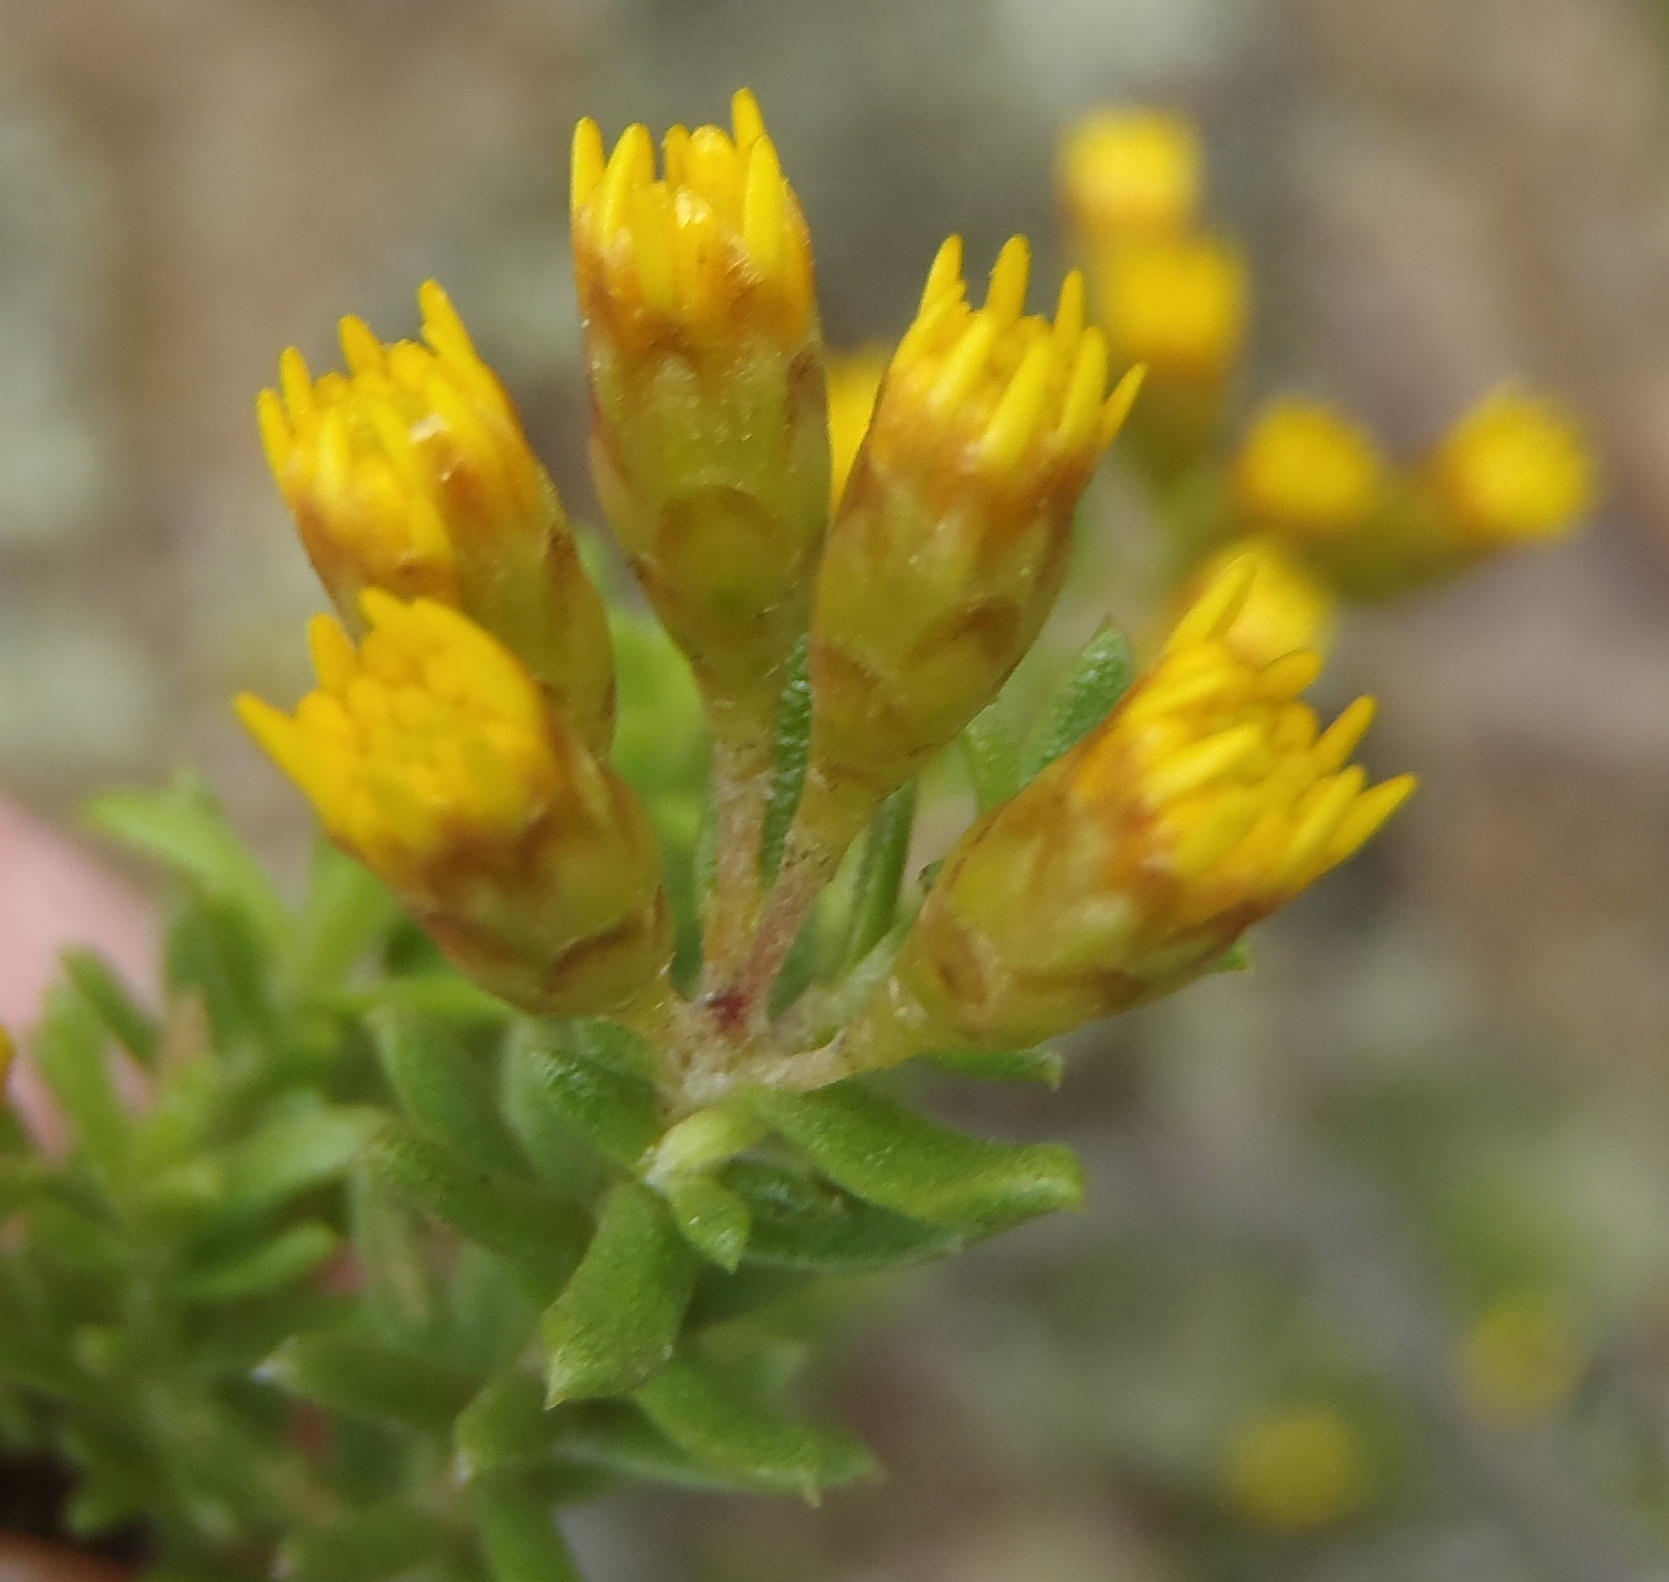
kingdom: Plantae
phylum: Tracheophyta
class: Magnoliopsida
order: Asterales
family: Asteraceae
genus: Oedera
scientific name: Oedera genistifolia
